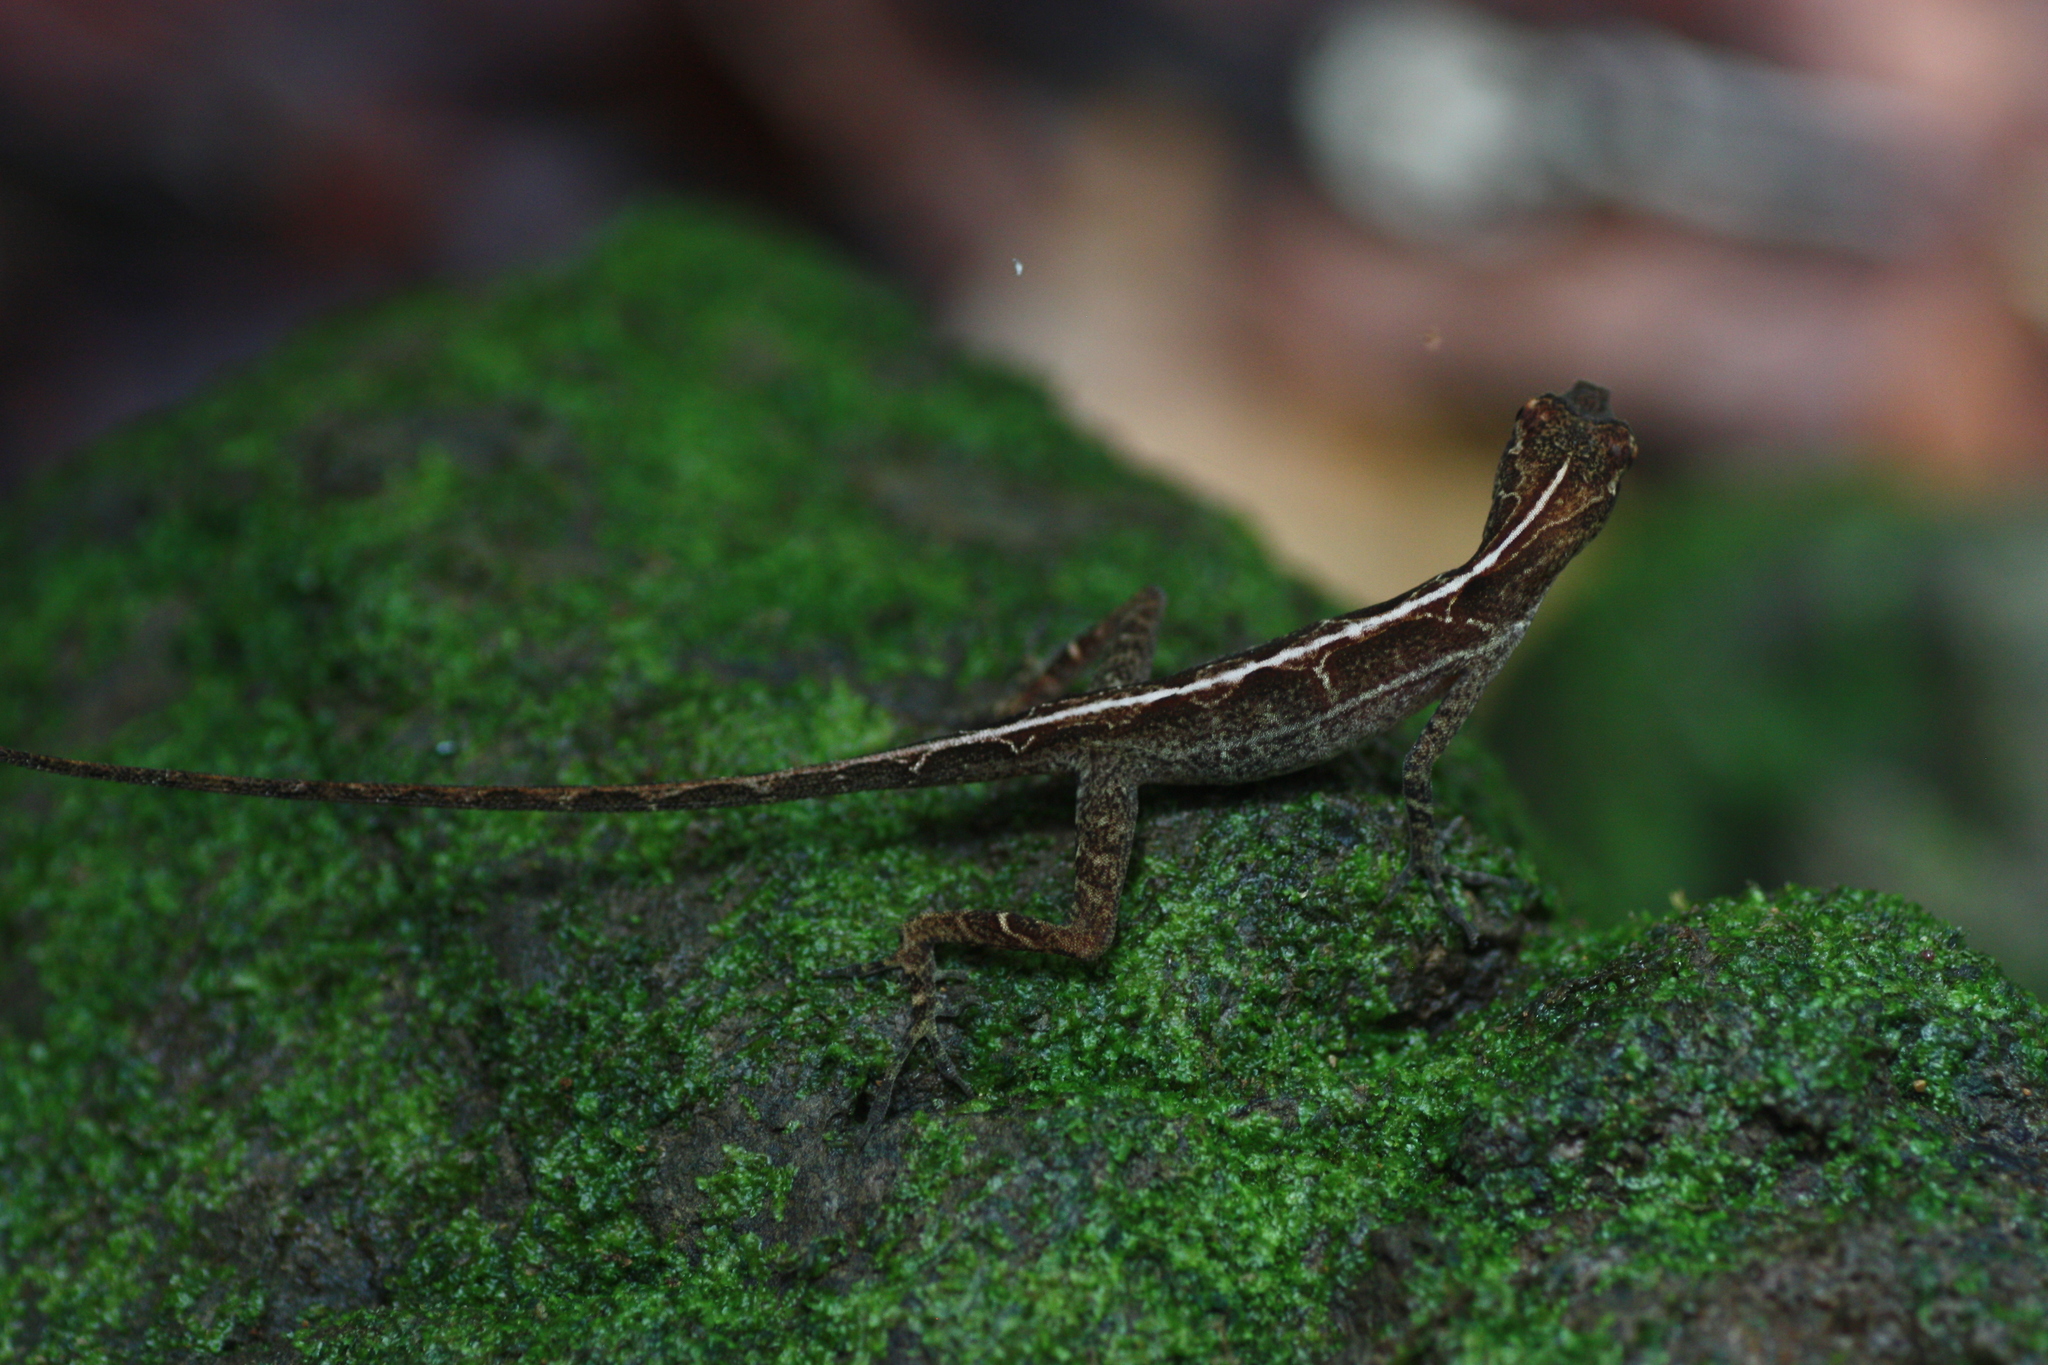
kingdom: Animalia
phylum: Chordata
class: Squamata
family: Dactyloidae
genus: Anolis
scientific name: Anolis lemurinus
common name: Ghost anole
